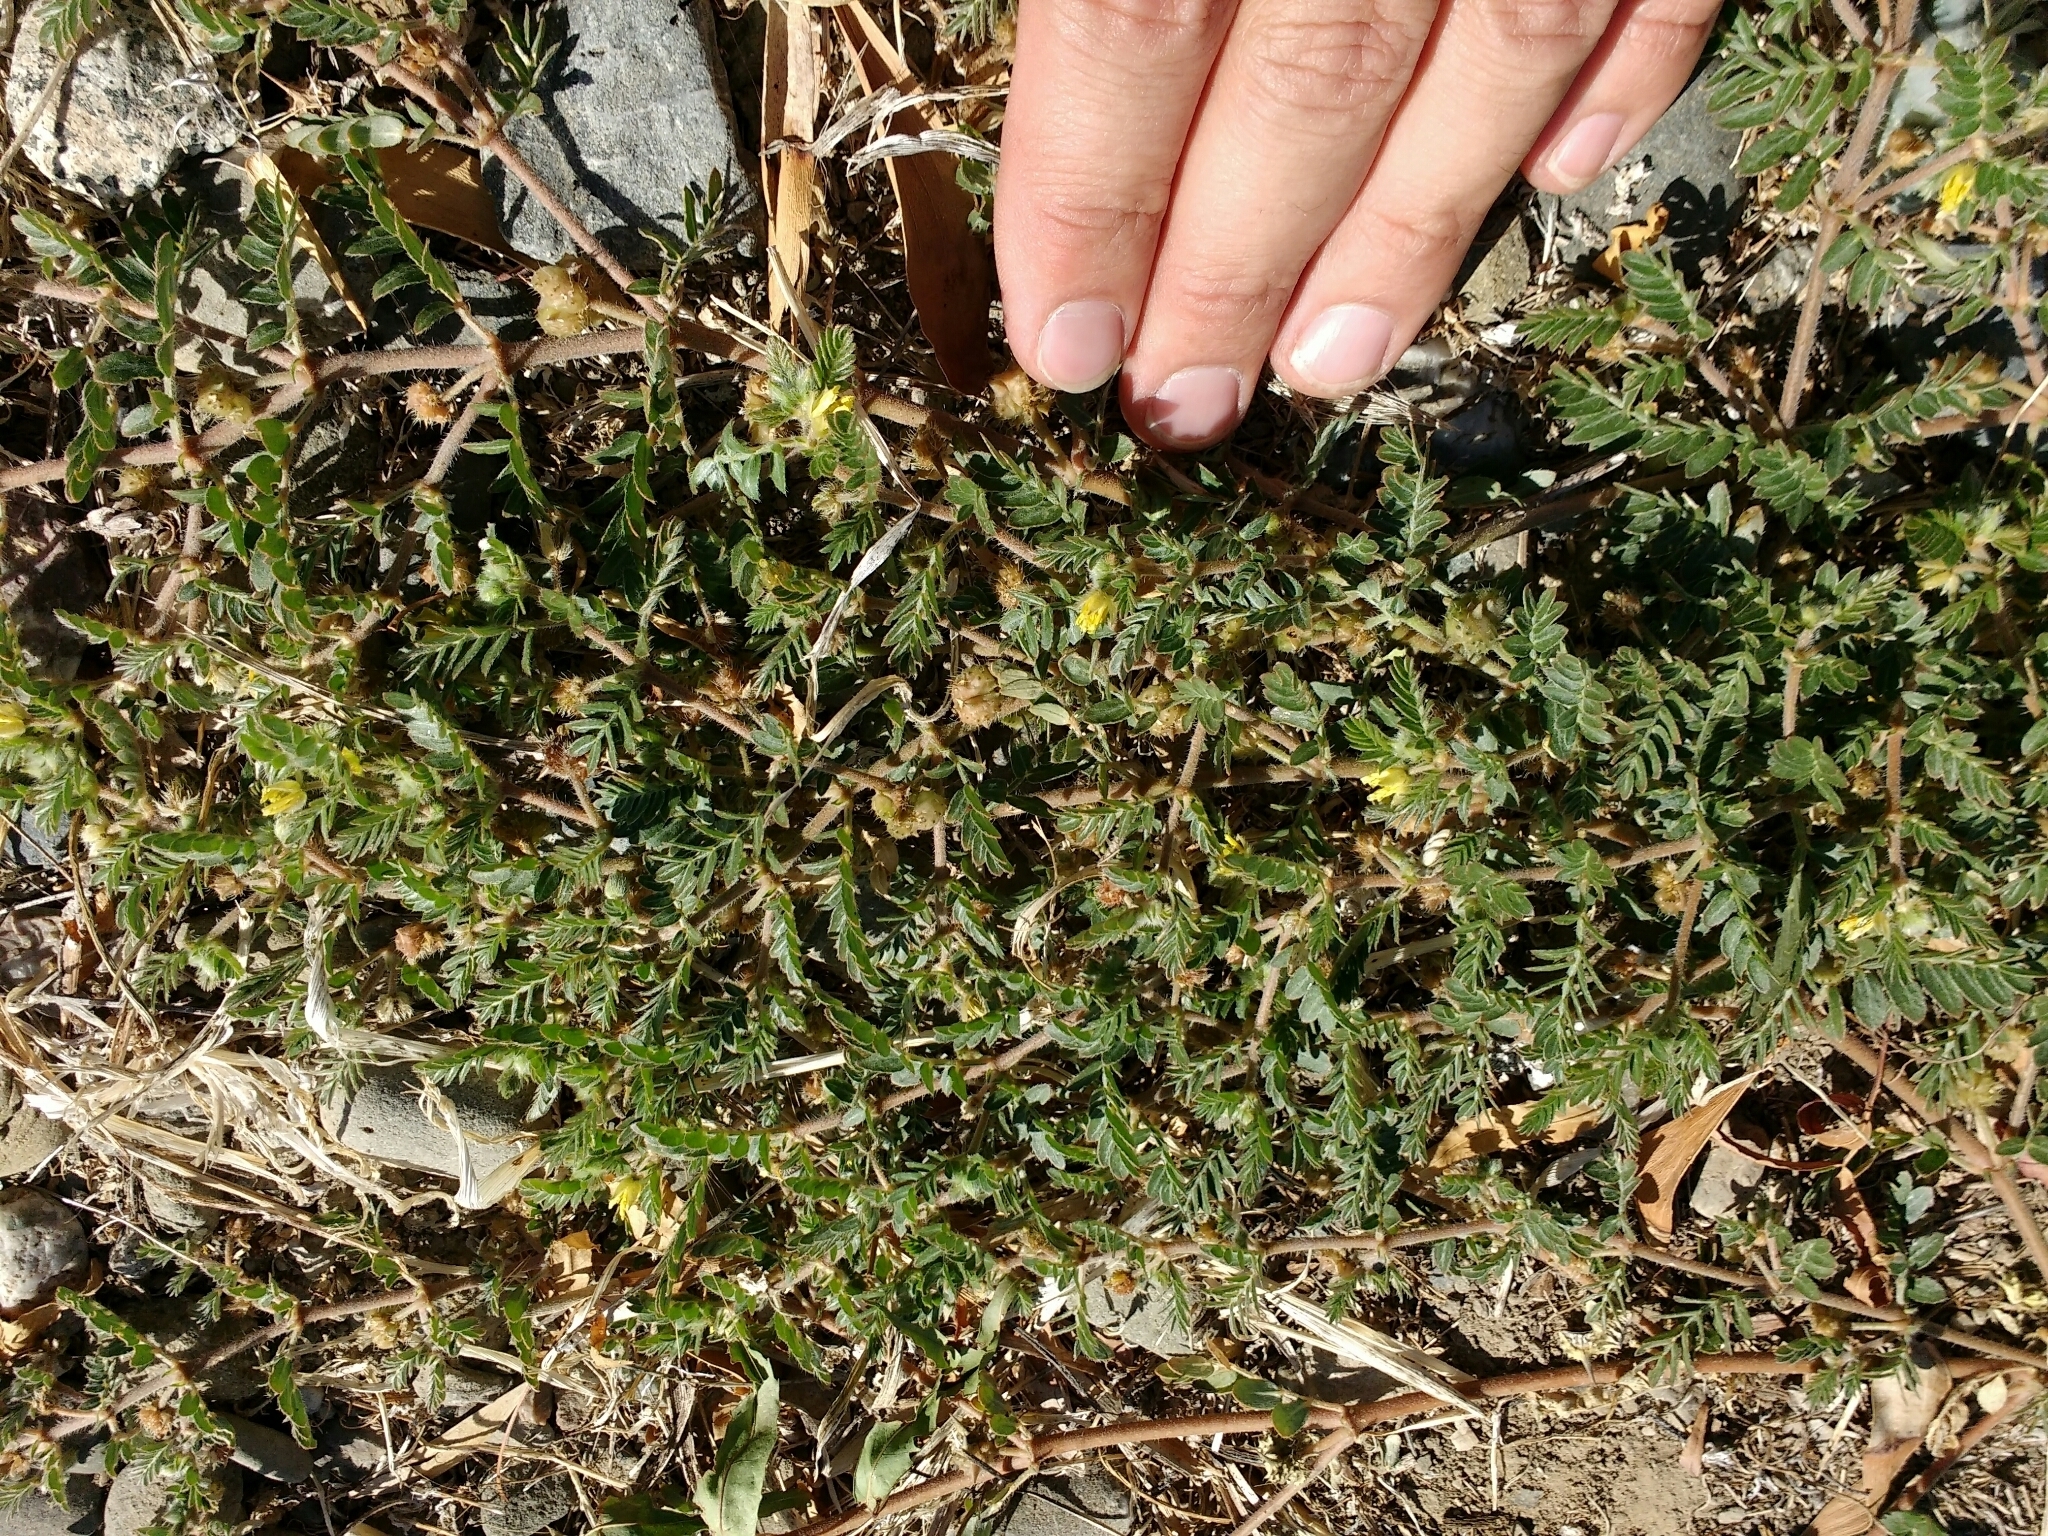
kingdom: Plantae
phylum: Tracheophyta
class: Magnoliopsida
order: Zygophyllales
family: Zygophyllaceae
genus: Tribulus
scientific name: Tribulus terrestris
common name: Puncturevine
